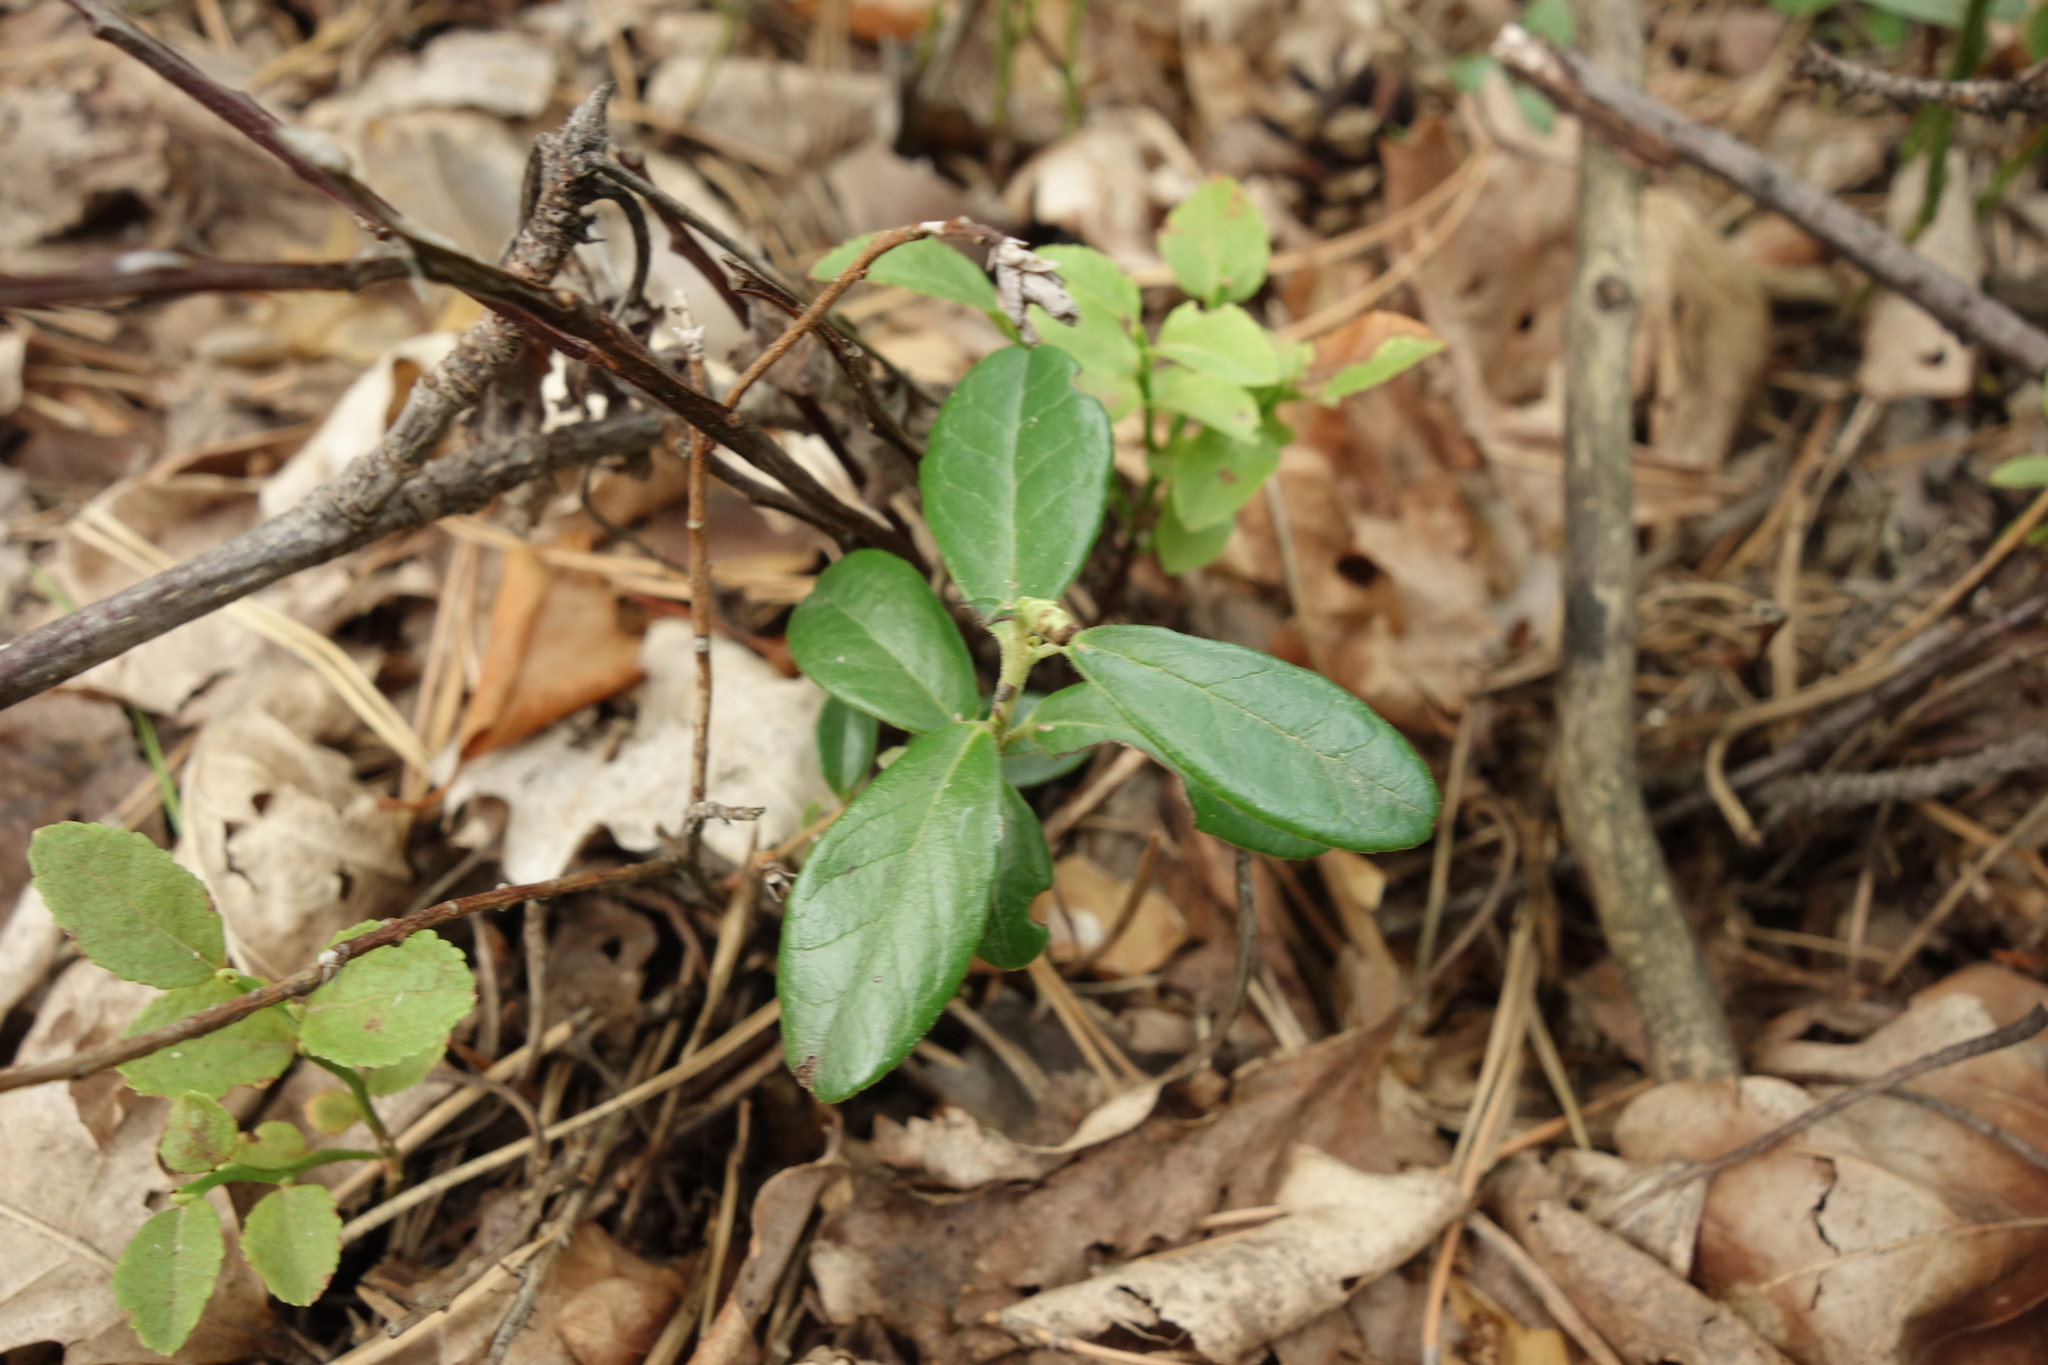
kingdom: Plantae
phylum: Tracheophyta
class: Magnoliopsida
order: Ericales
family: Ericaceae
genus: Vaccinium
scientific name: Vaccinium vitis-idaea
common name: Cowberry
